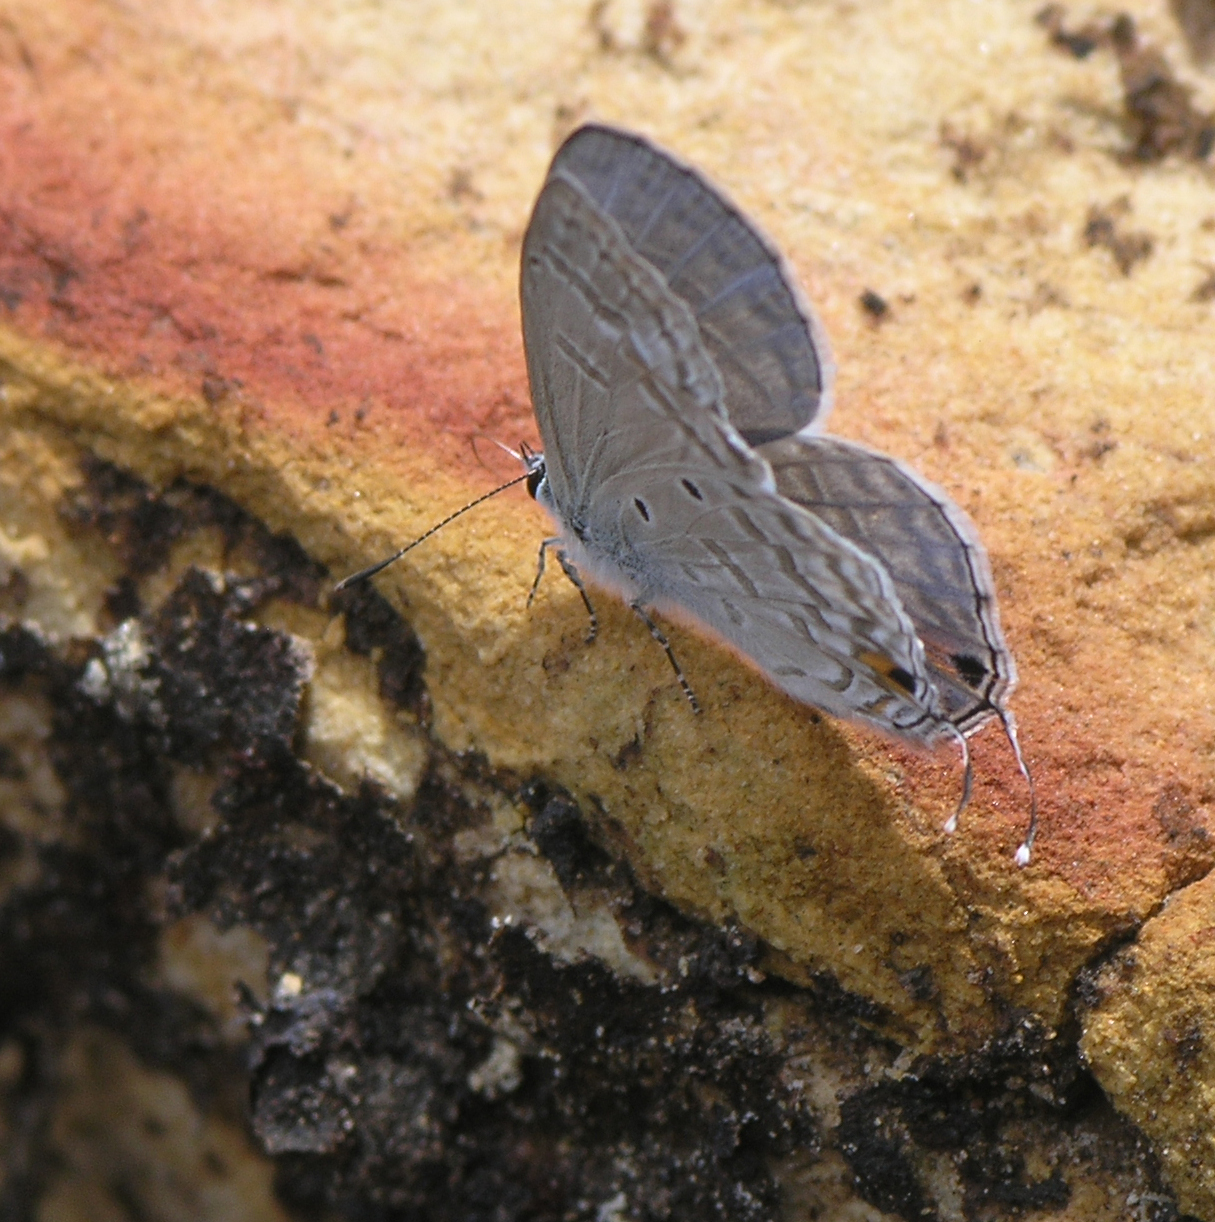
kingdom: Animalia
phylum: Arthropoda
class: Insecta
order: Lepidoptera
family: Lycaenidae
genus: Catochrysops
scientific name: Catochrysops panormus
